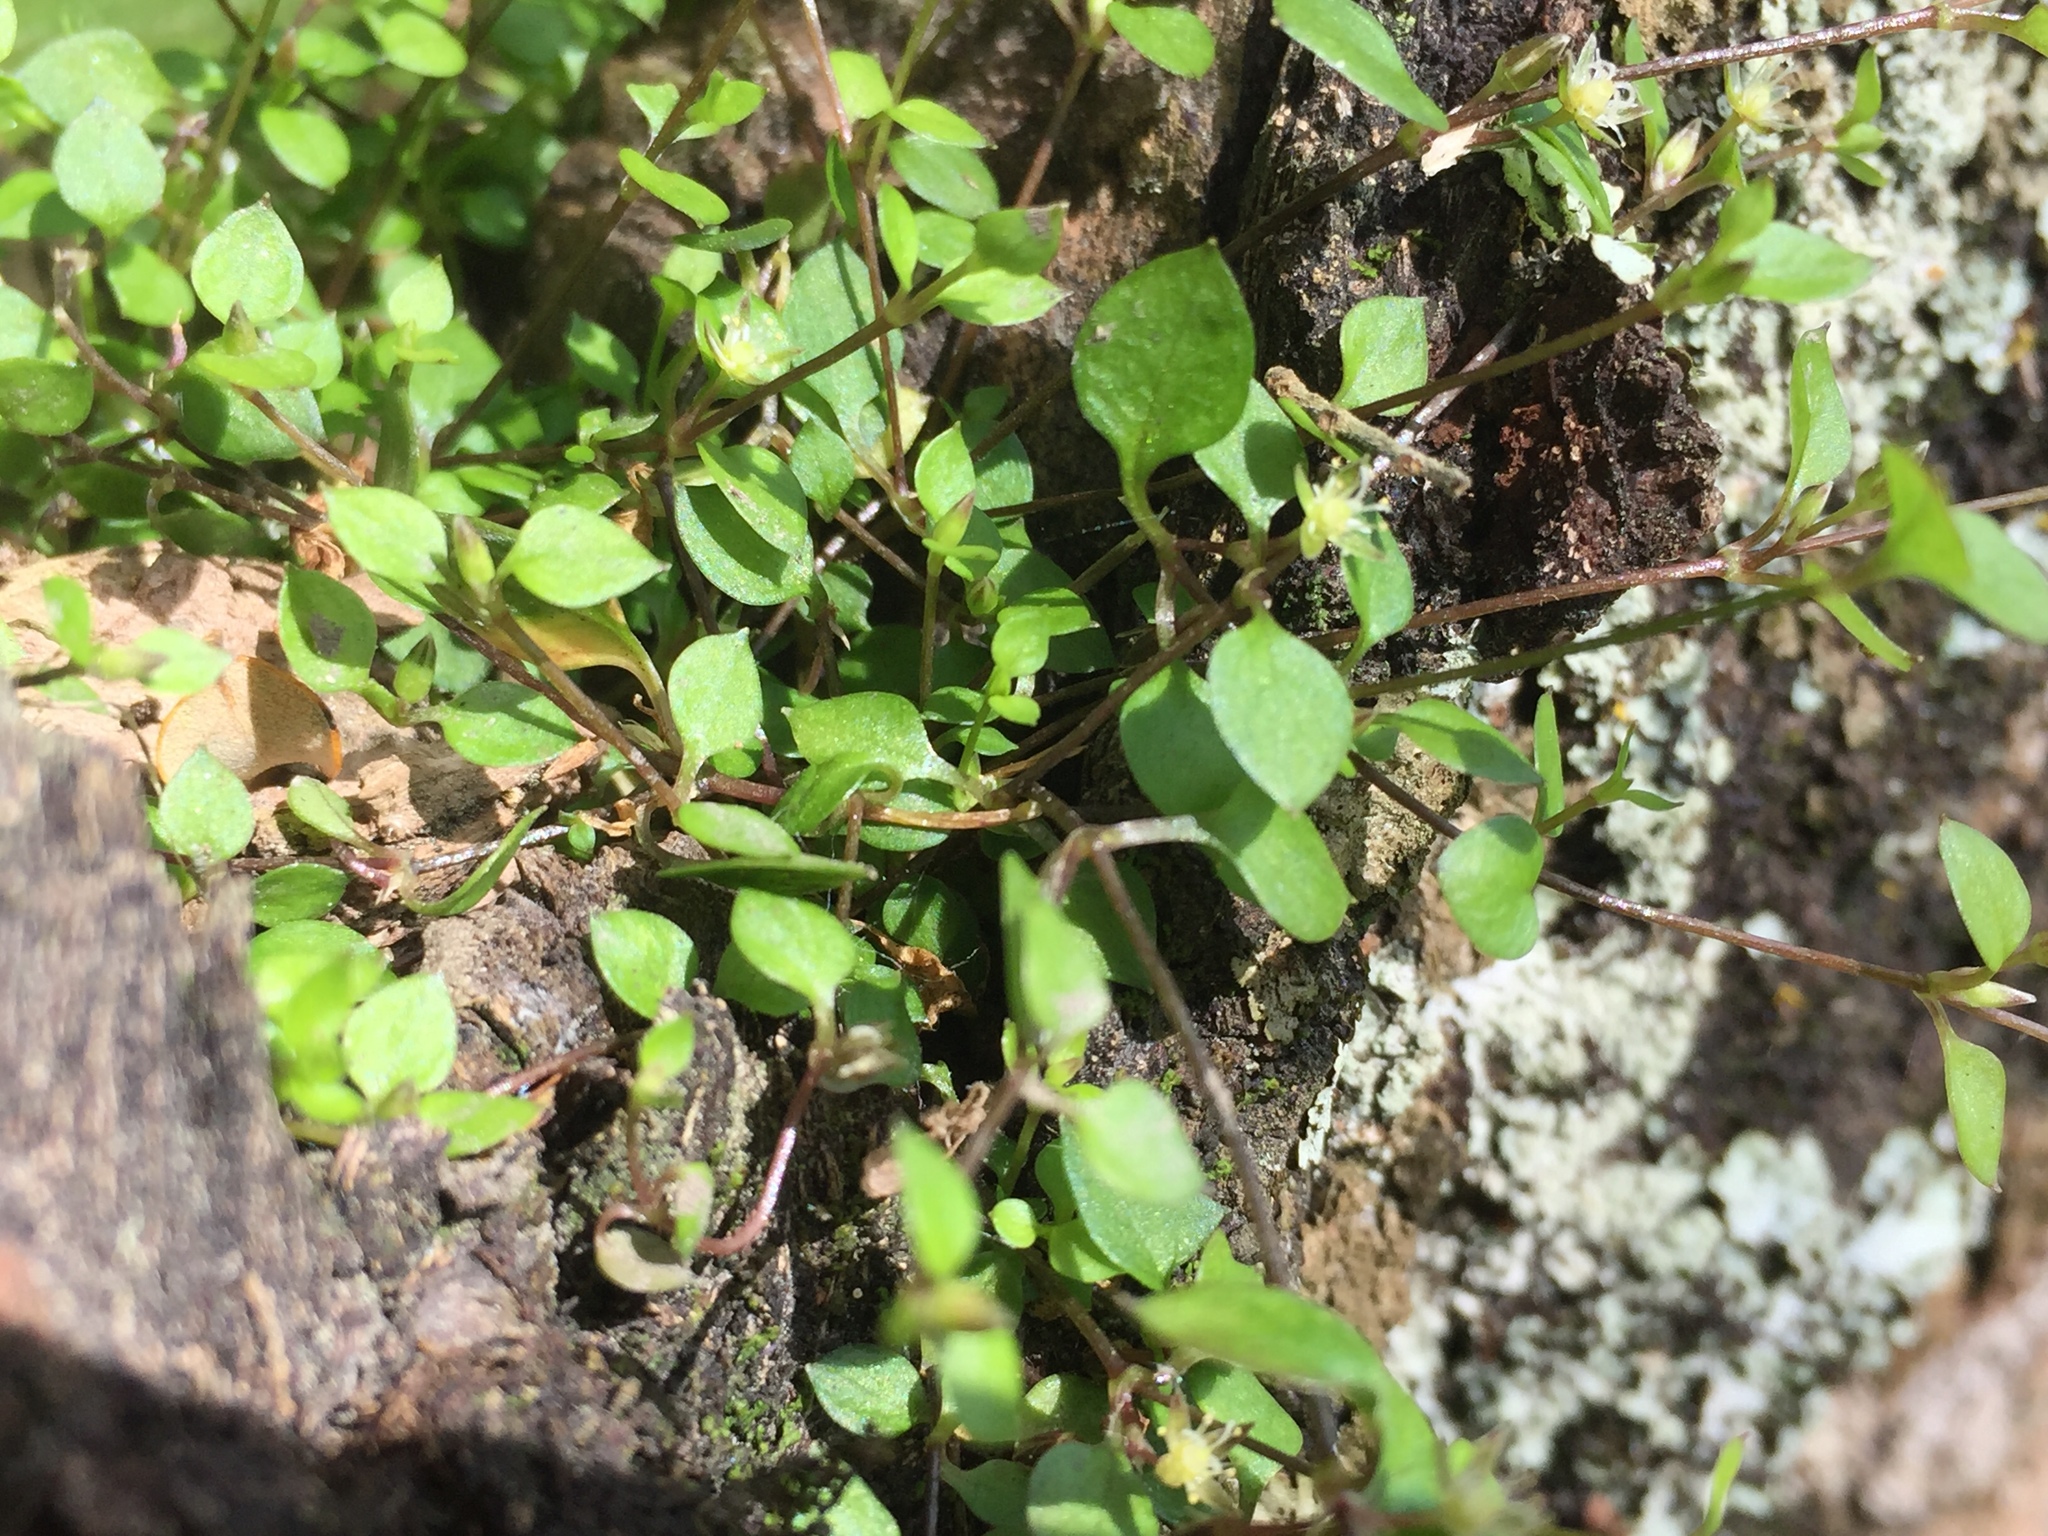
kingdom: Plantae
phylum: Tracheophyta
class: Magnoliopsida
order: Caryophyllales
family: Caryophyllaceae
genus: Stellaria
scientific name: Stellaria parviflora
